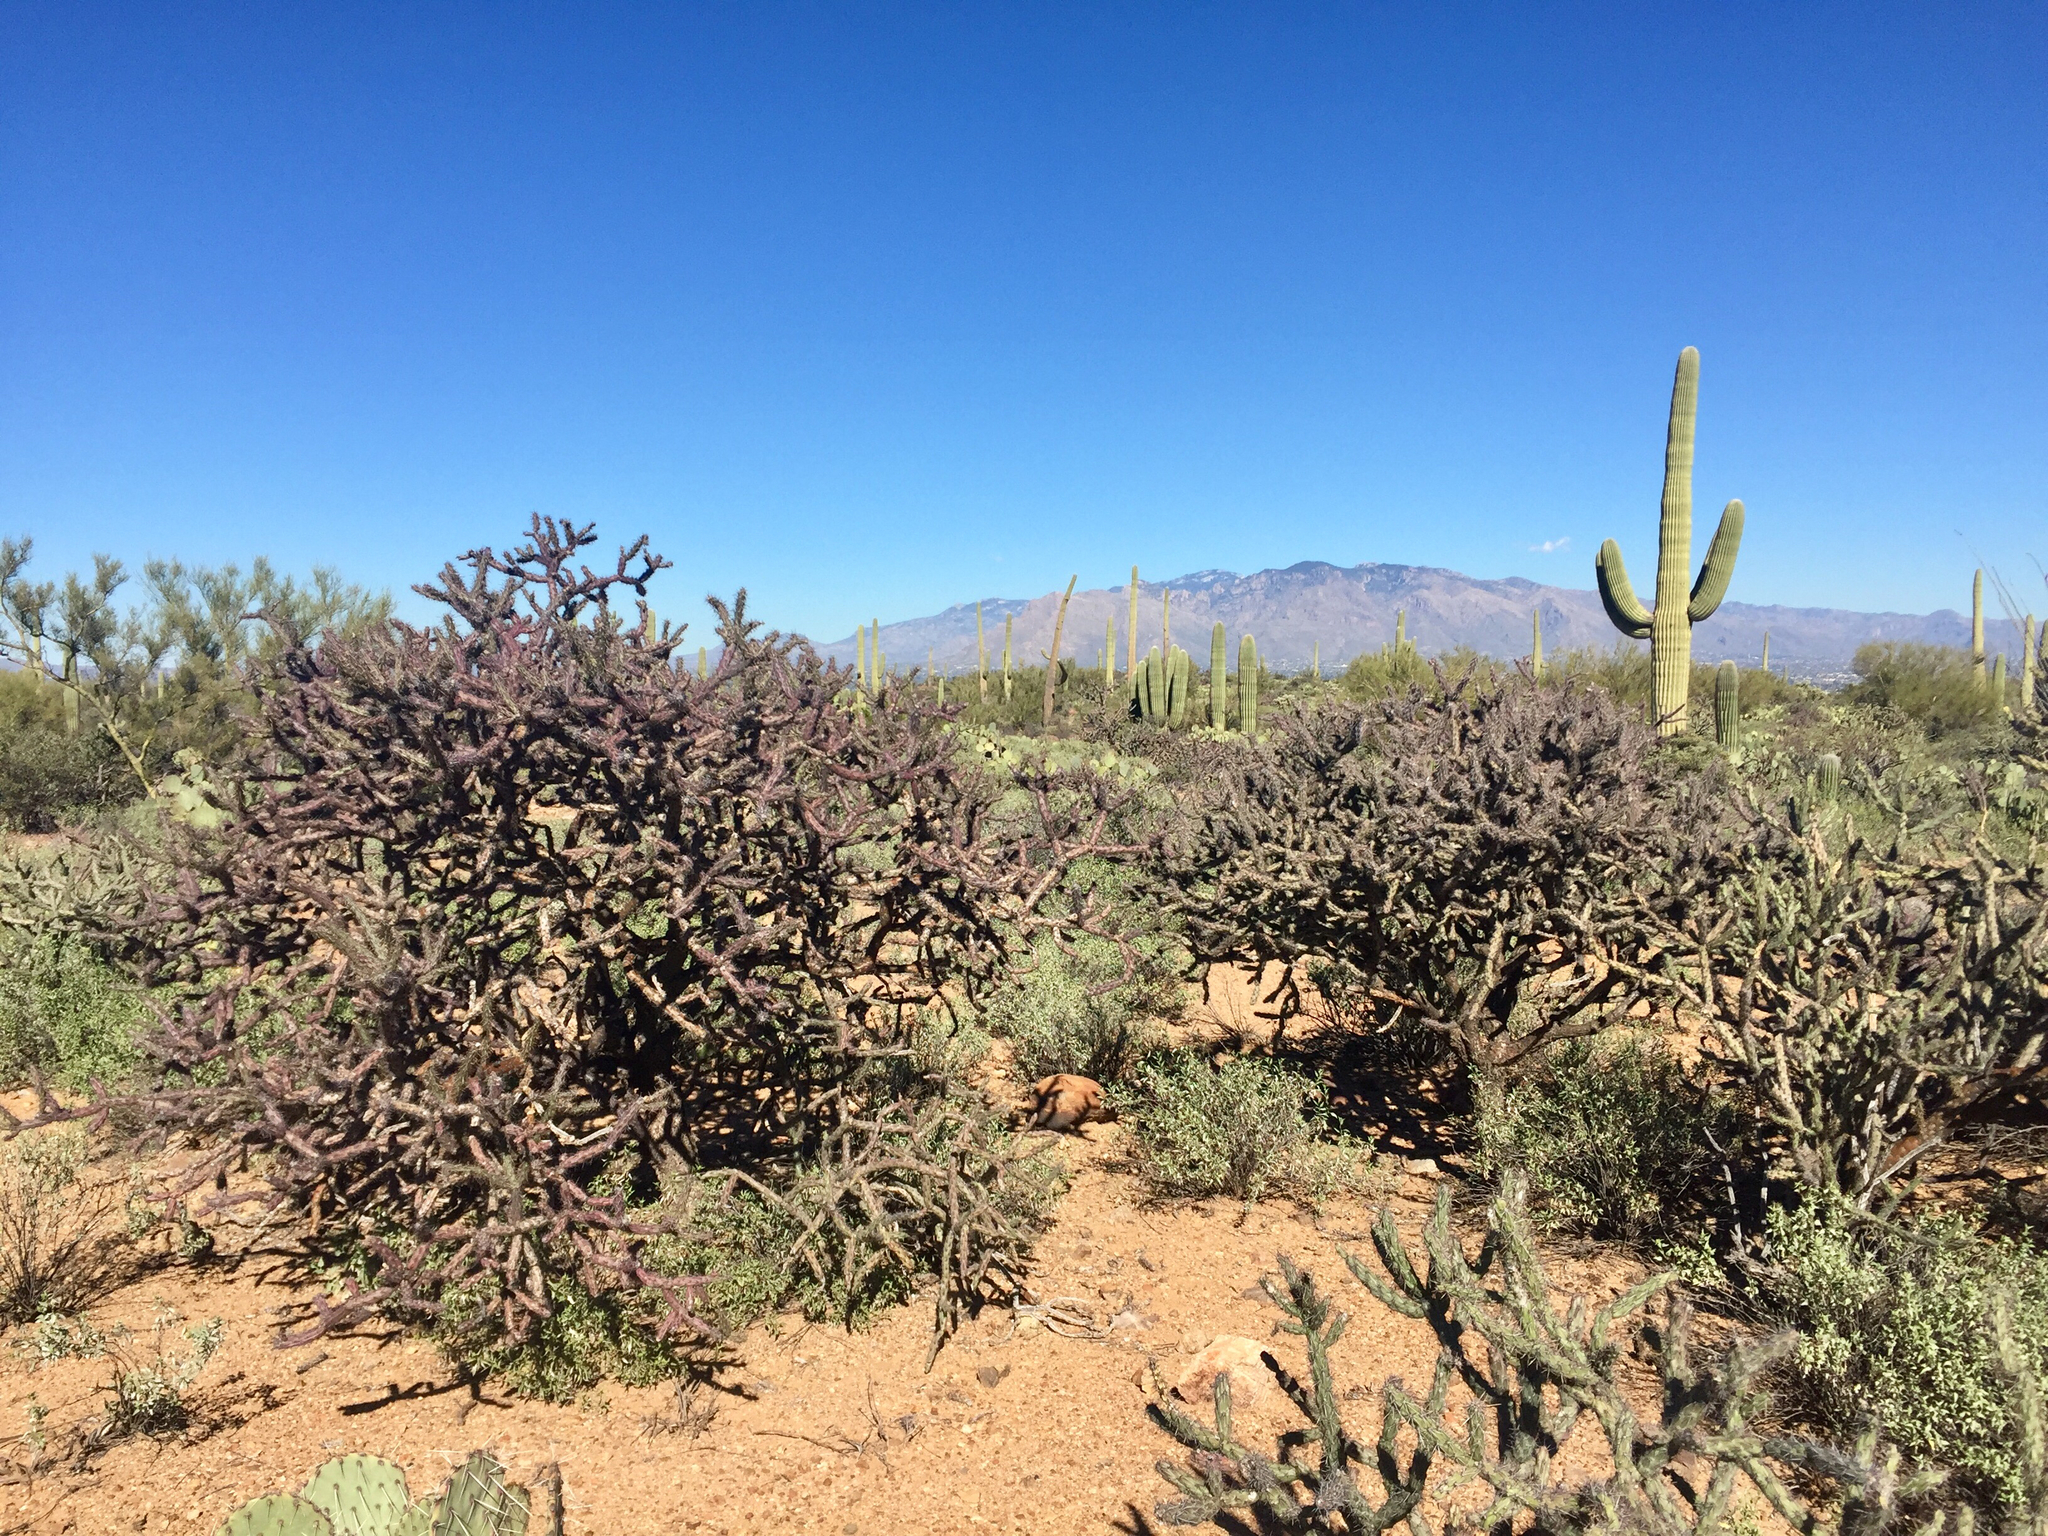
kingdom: Plantae
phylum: Tracheophyta
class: Magnoliopsida
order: Caryophyllales
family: Cactaceae
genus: Cylindropuntia
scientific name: Cylindropuntia thurberi
